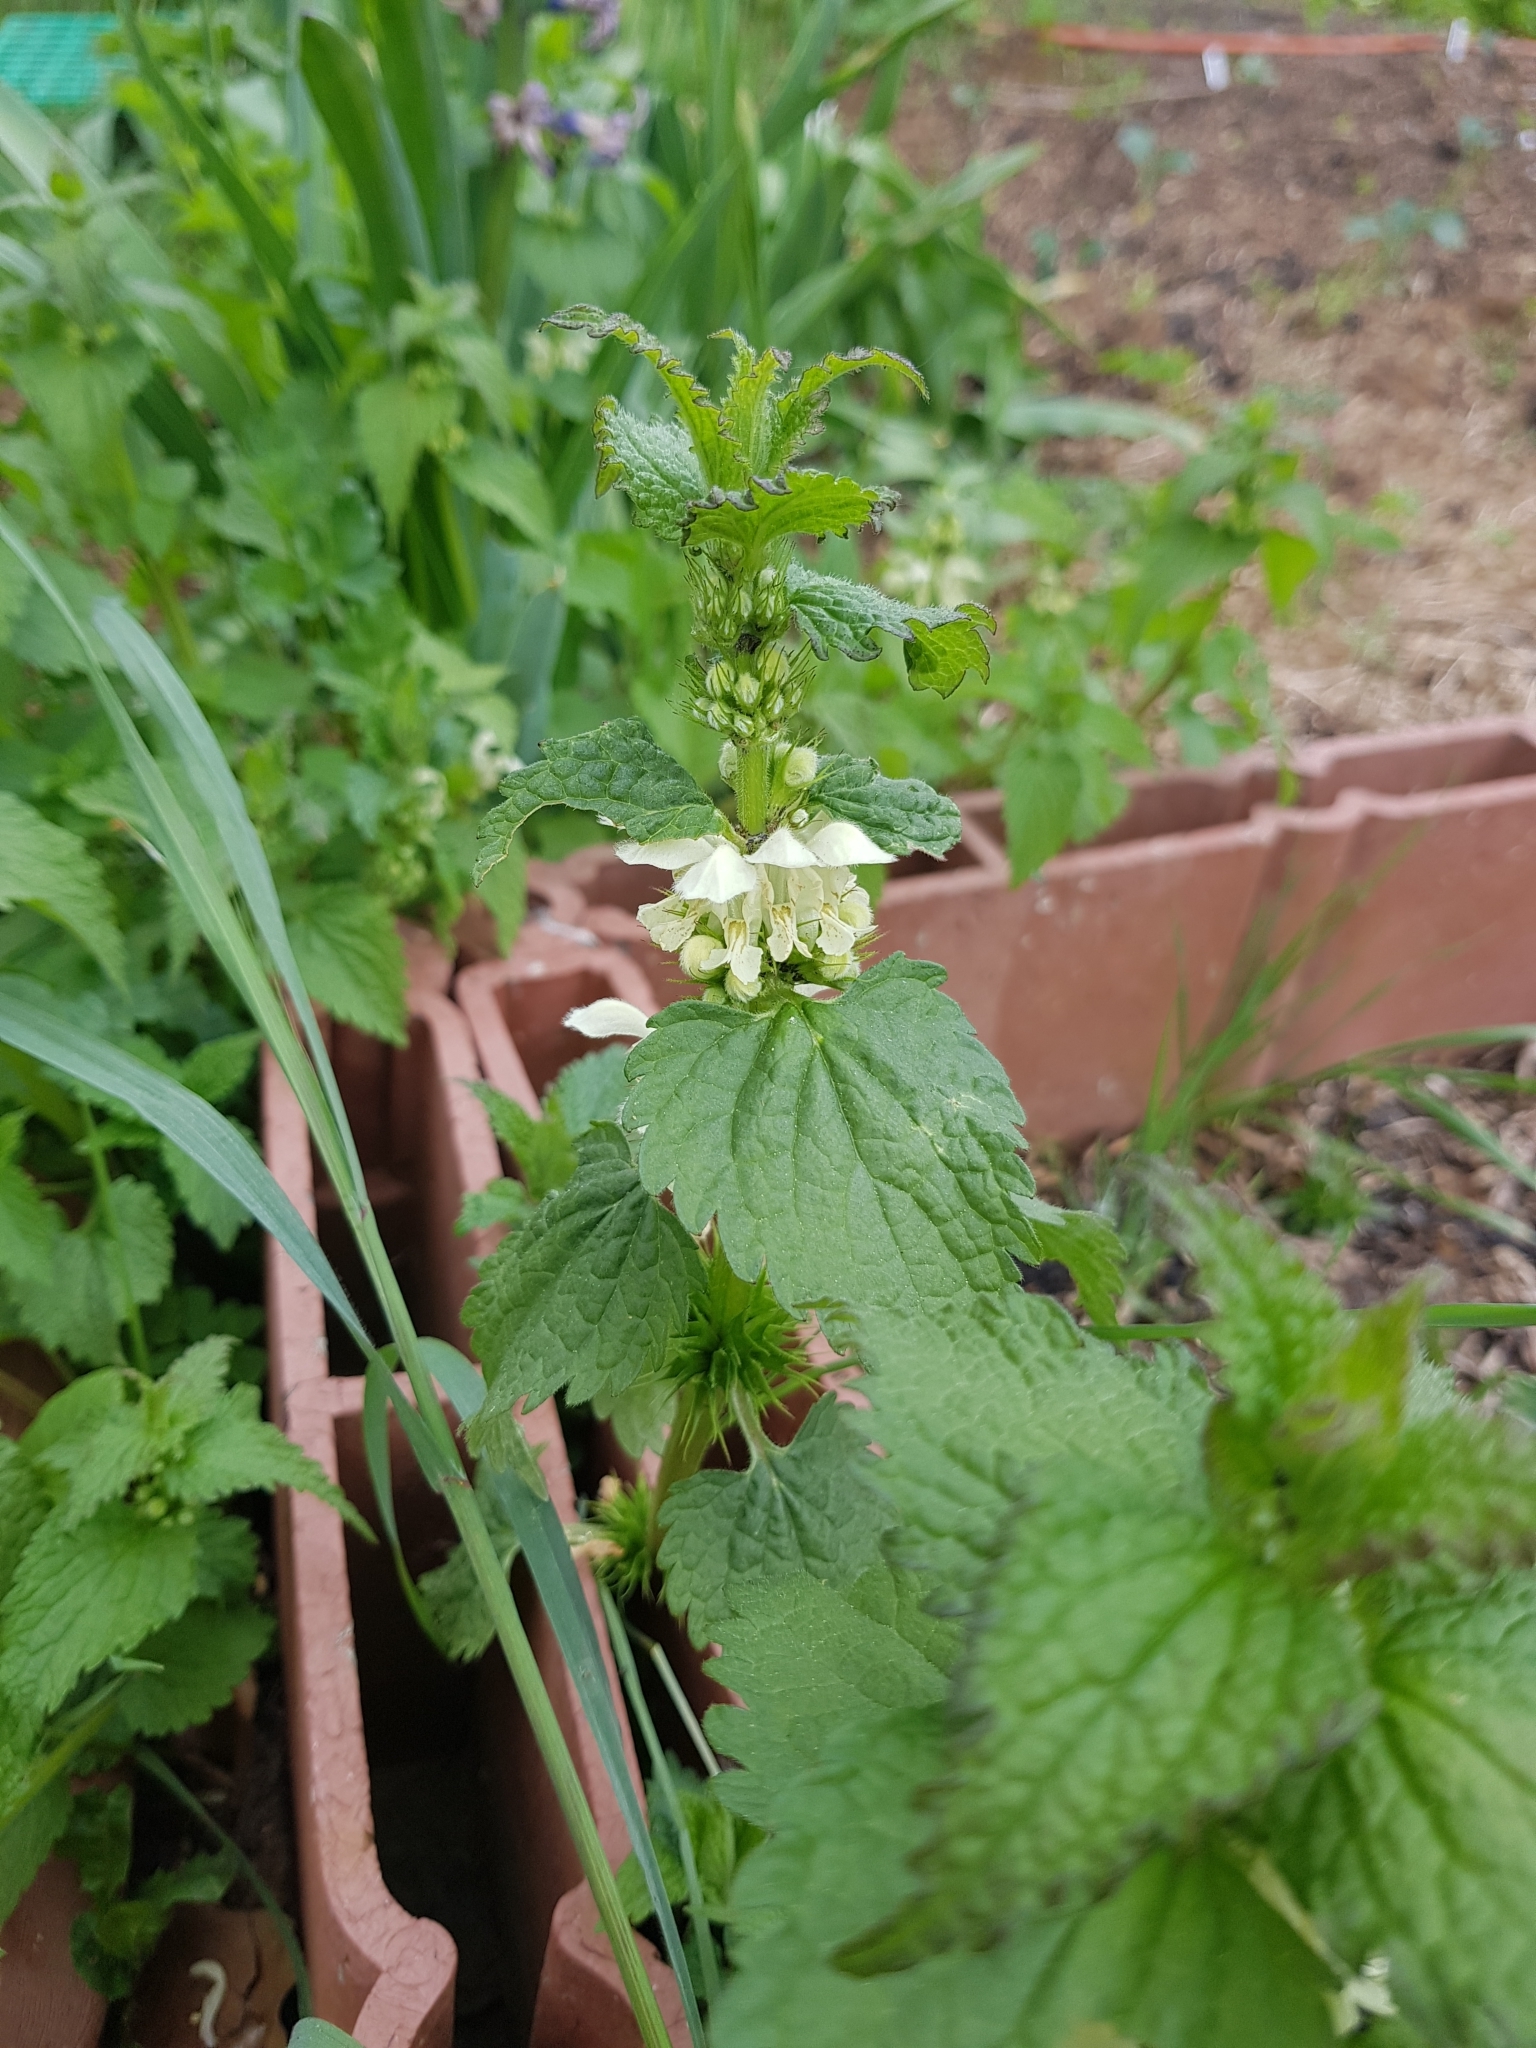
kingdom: Plantae
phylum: Tracheophyta
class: Magnoliopsida
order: Lamiales
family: Lamiaceae
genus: Lamium
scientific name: Lamium album
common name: White dead-nettle
